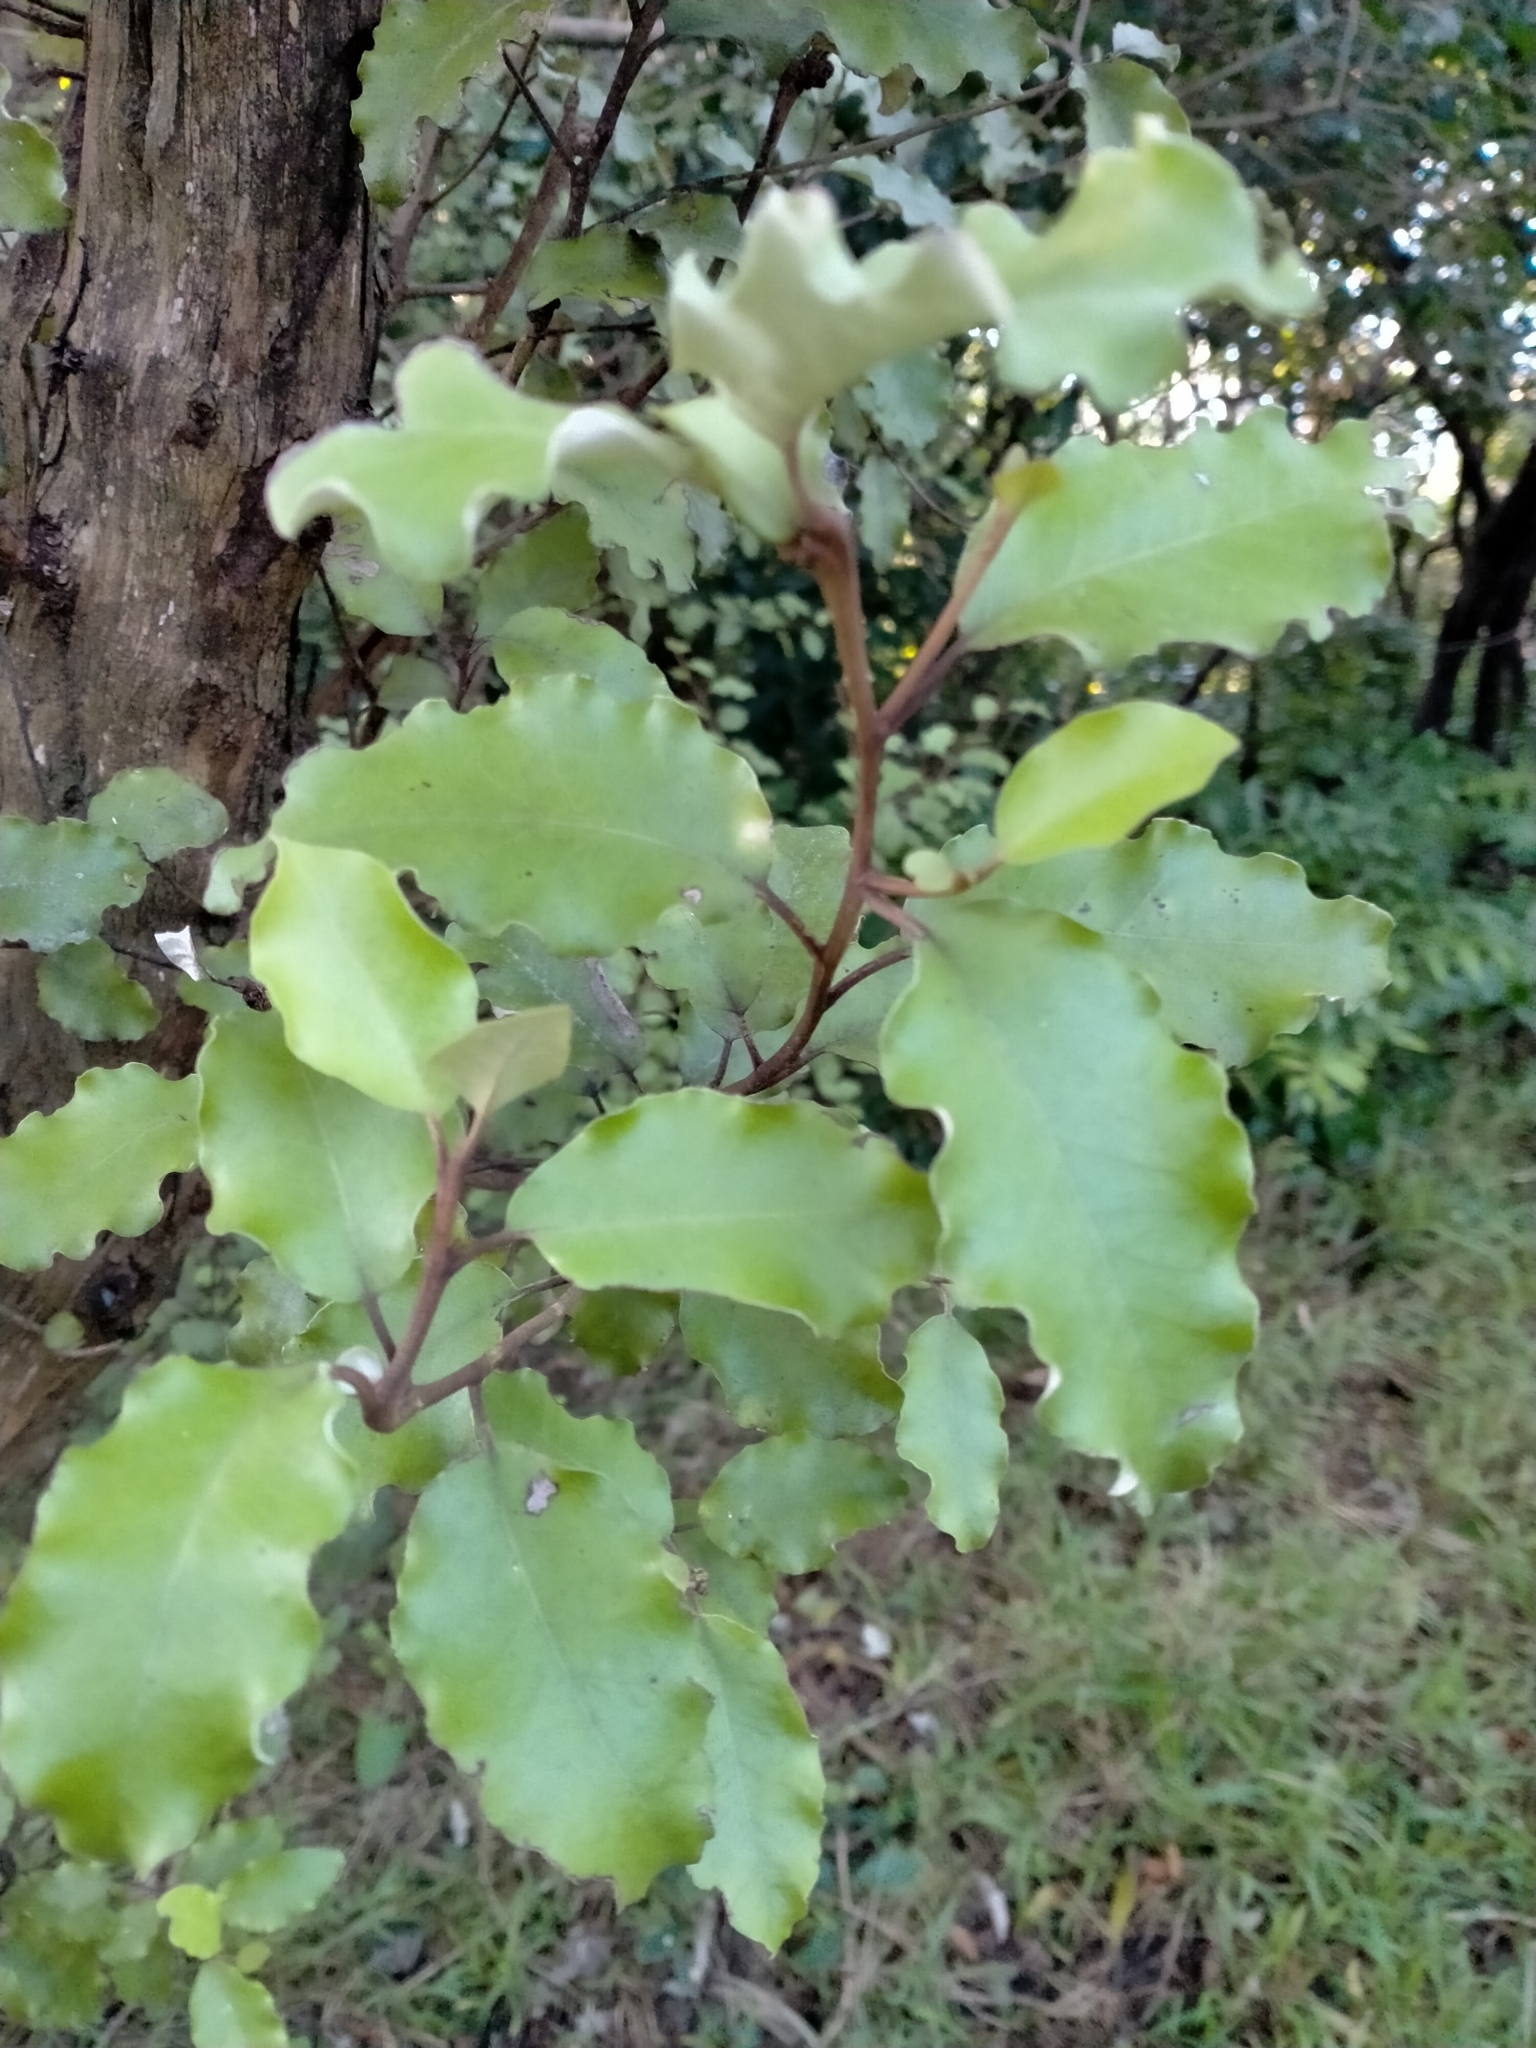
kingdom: Plantae
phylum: Tracheophyta
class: Magnoliopsida
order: Asterales
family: Asteraceae
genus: Olearia
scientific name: Olearia paniculata
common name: Akiraho
